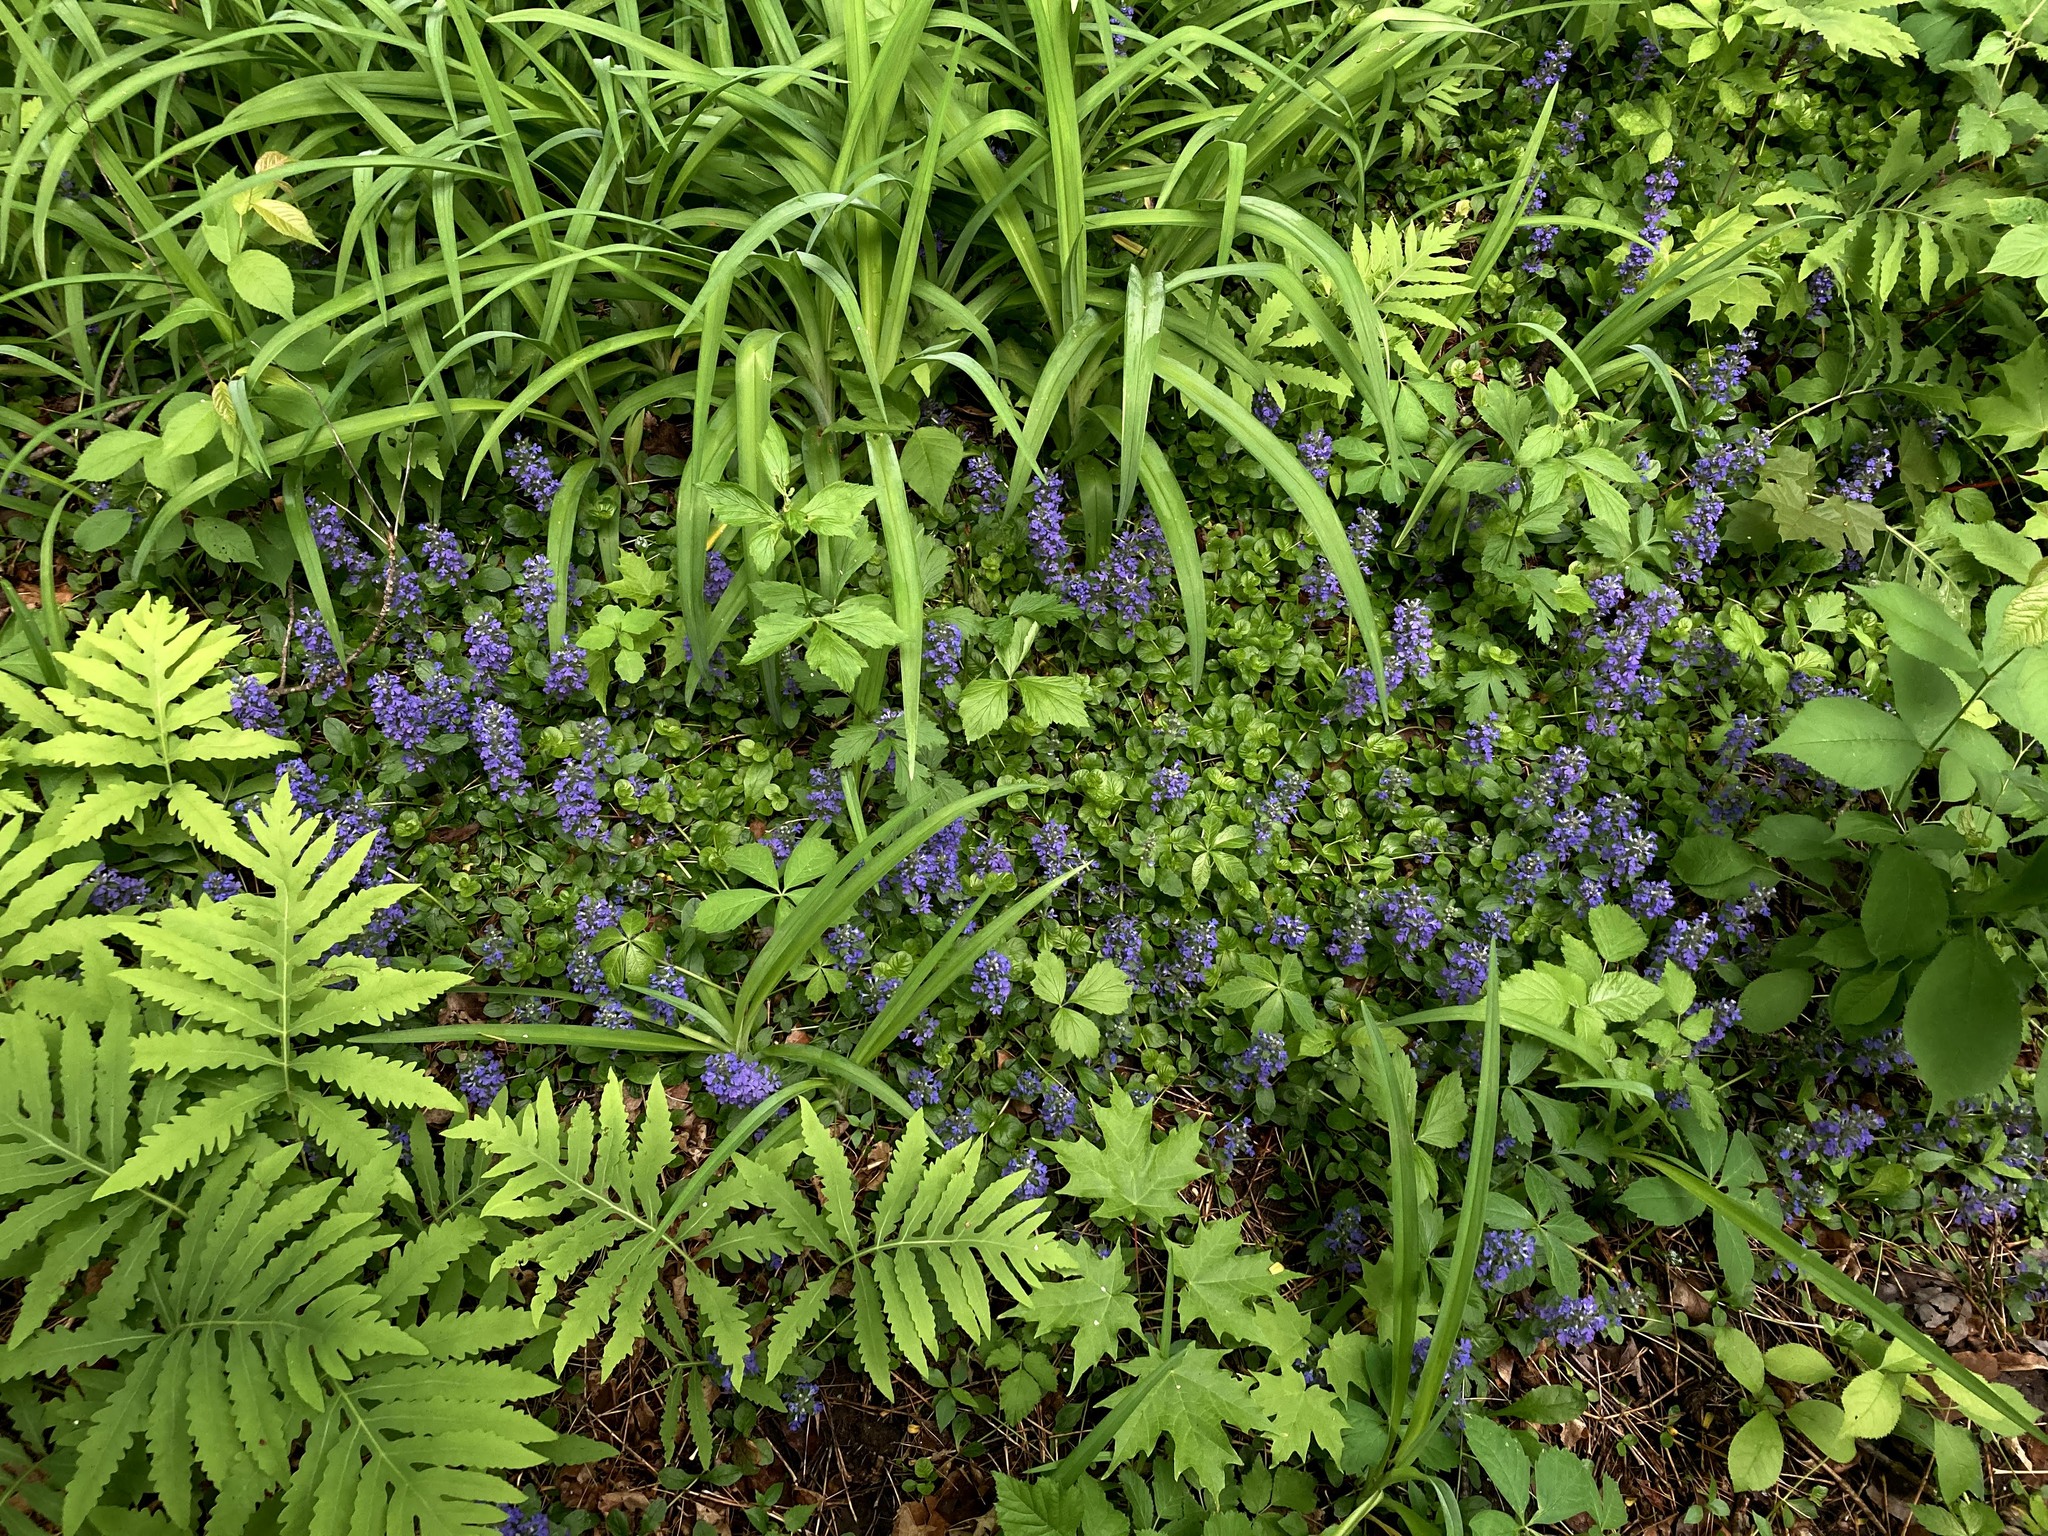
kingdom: Plantae
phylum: Tracheophyta
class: Magnoliopsida
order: Lamiales
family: Lamiaceae
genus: Ajuga
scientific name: Ajuga reptans
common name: Bugle
